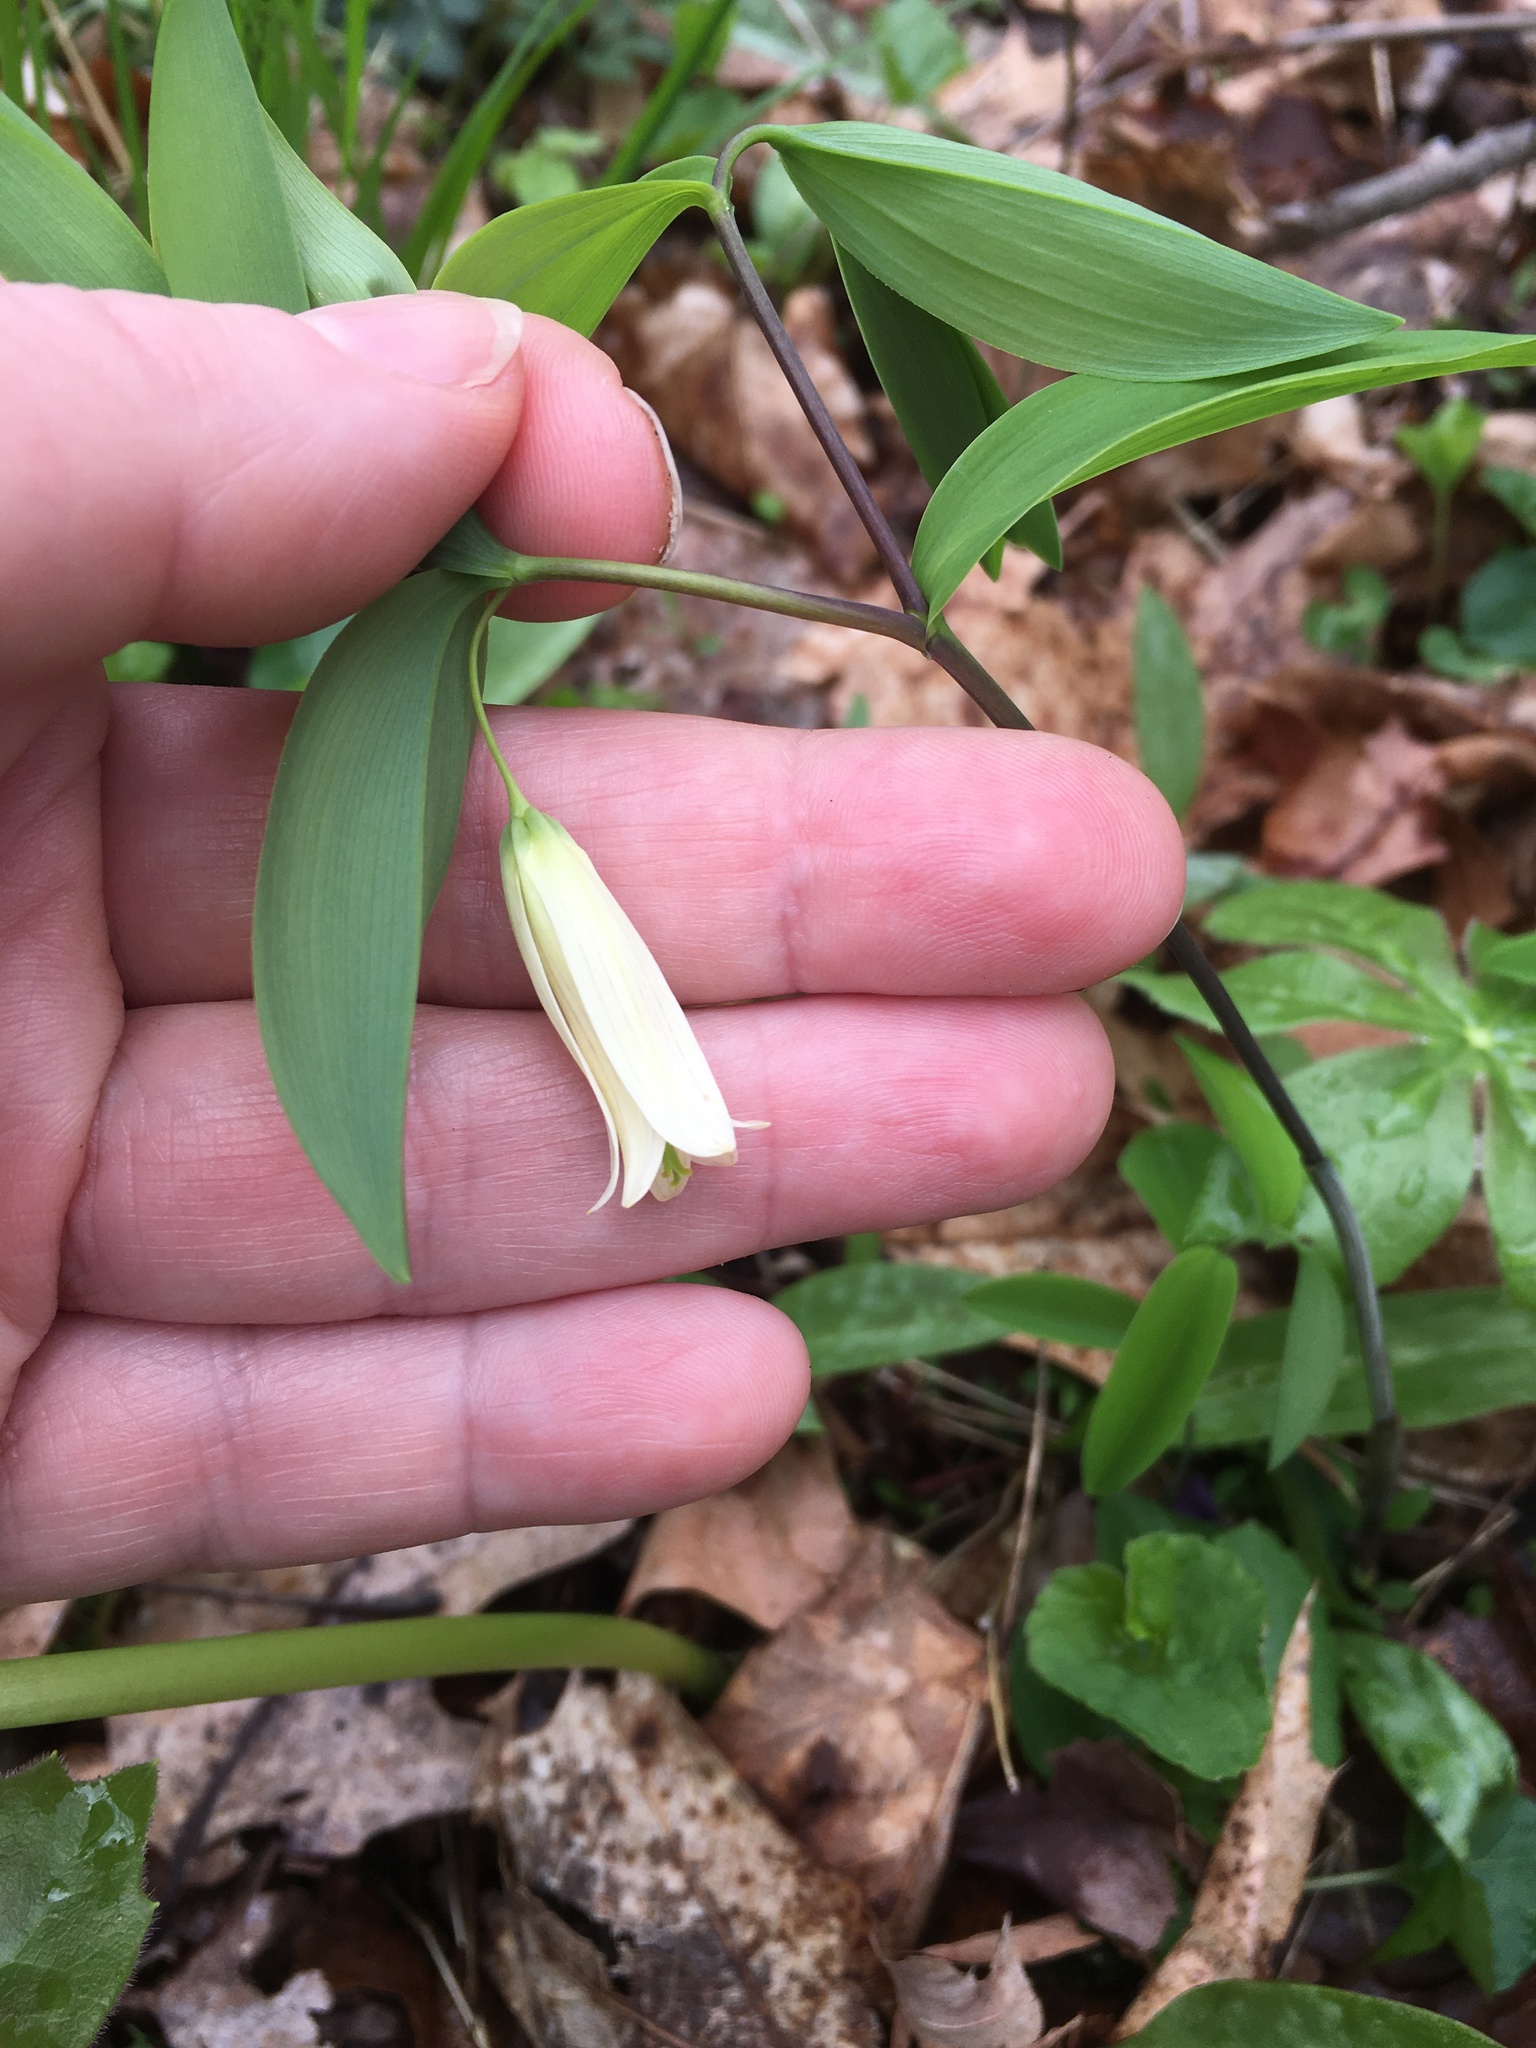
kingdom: Plantae
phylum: Tracheophyta
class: Liliopsida
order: Liliales
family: Colchicaceae
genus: Uvularia
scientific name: Uvularia sessilifolia
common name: Straw-lily
